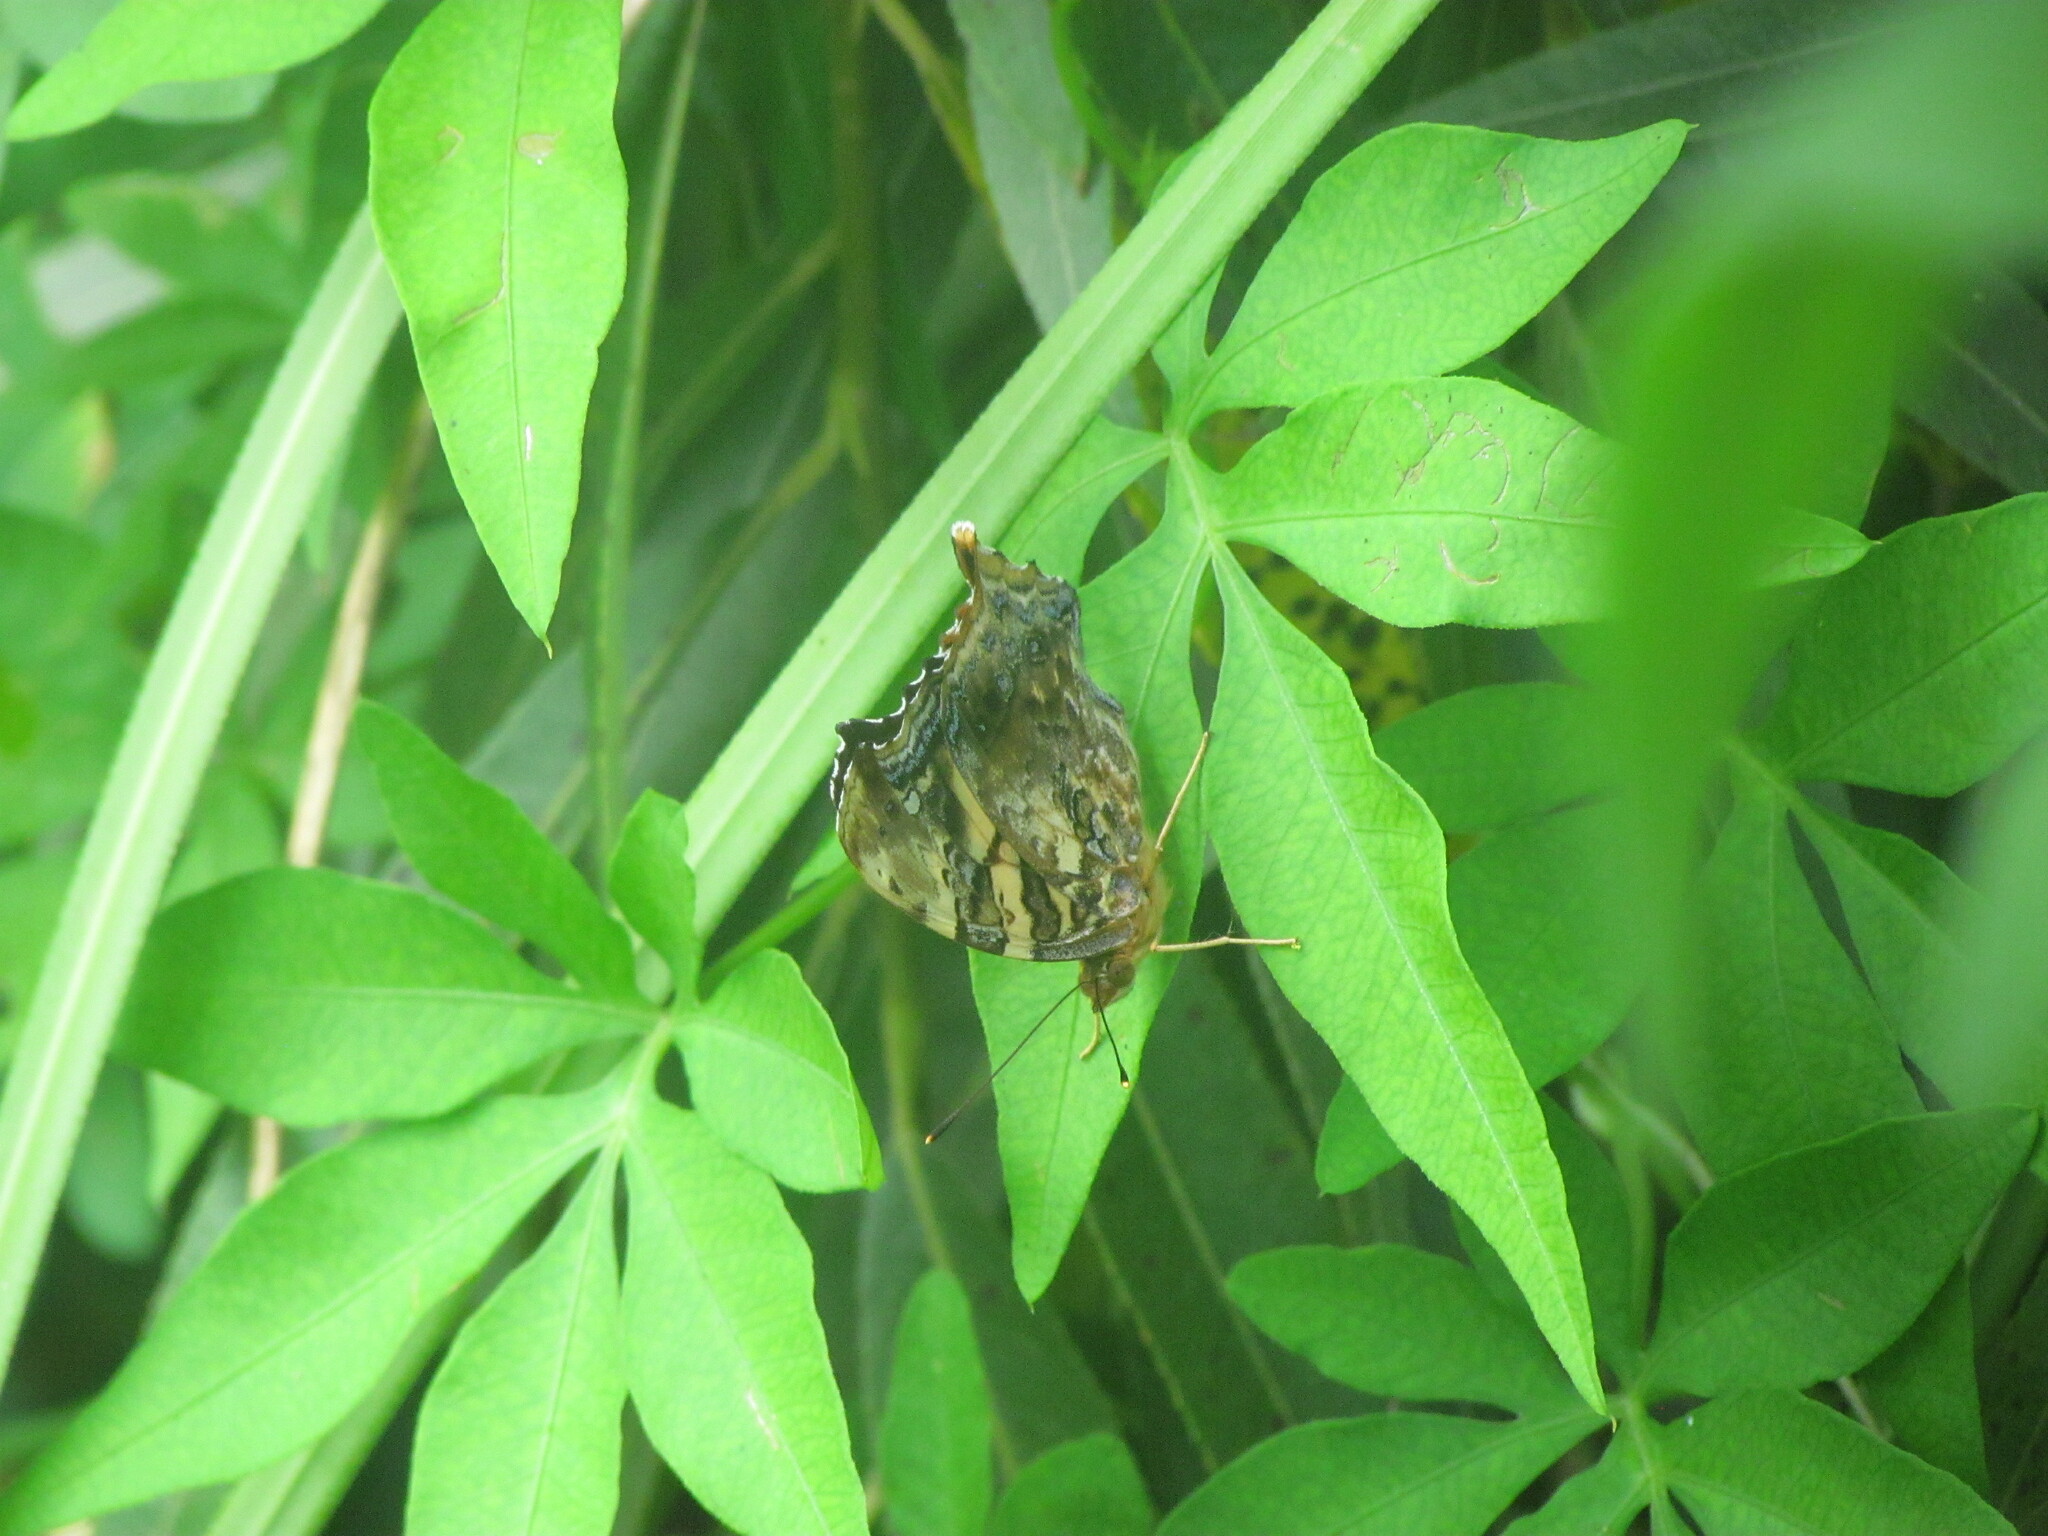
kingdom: Animalia
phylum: Arthropoda
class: Insecta
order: Lepidoptera
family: Nymphalidae
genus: Hypanartia
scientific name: Hypanartia bella
